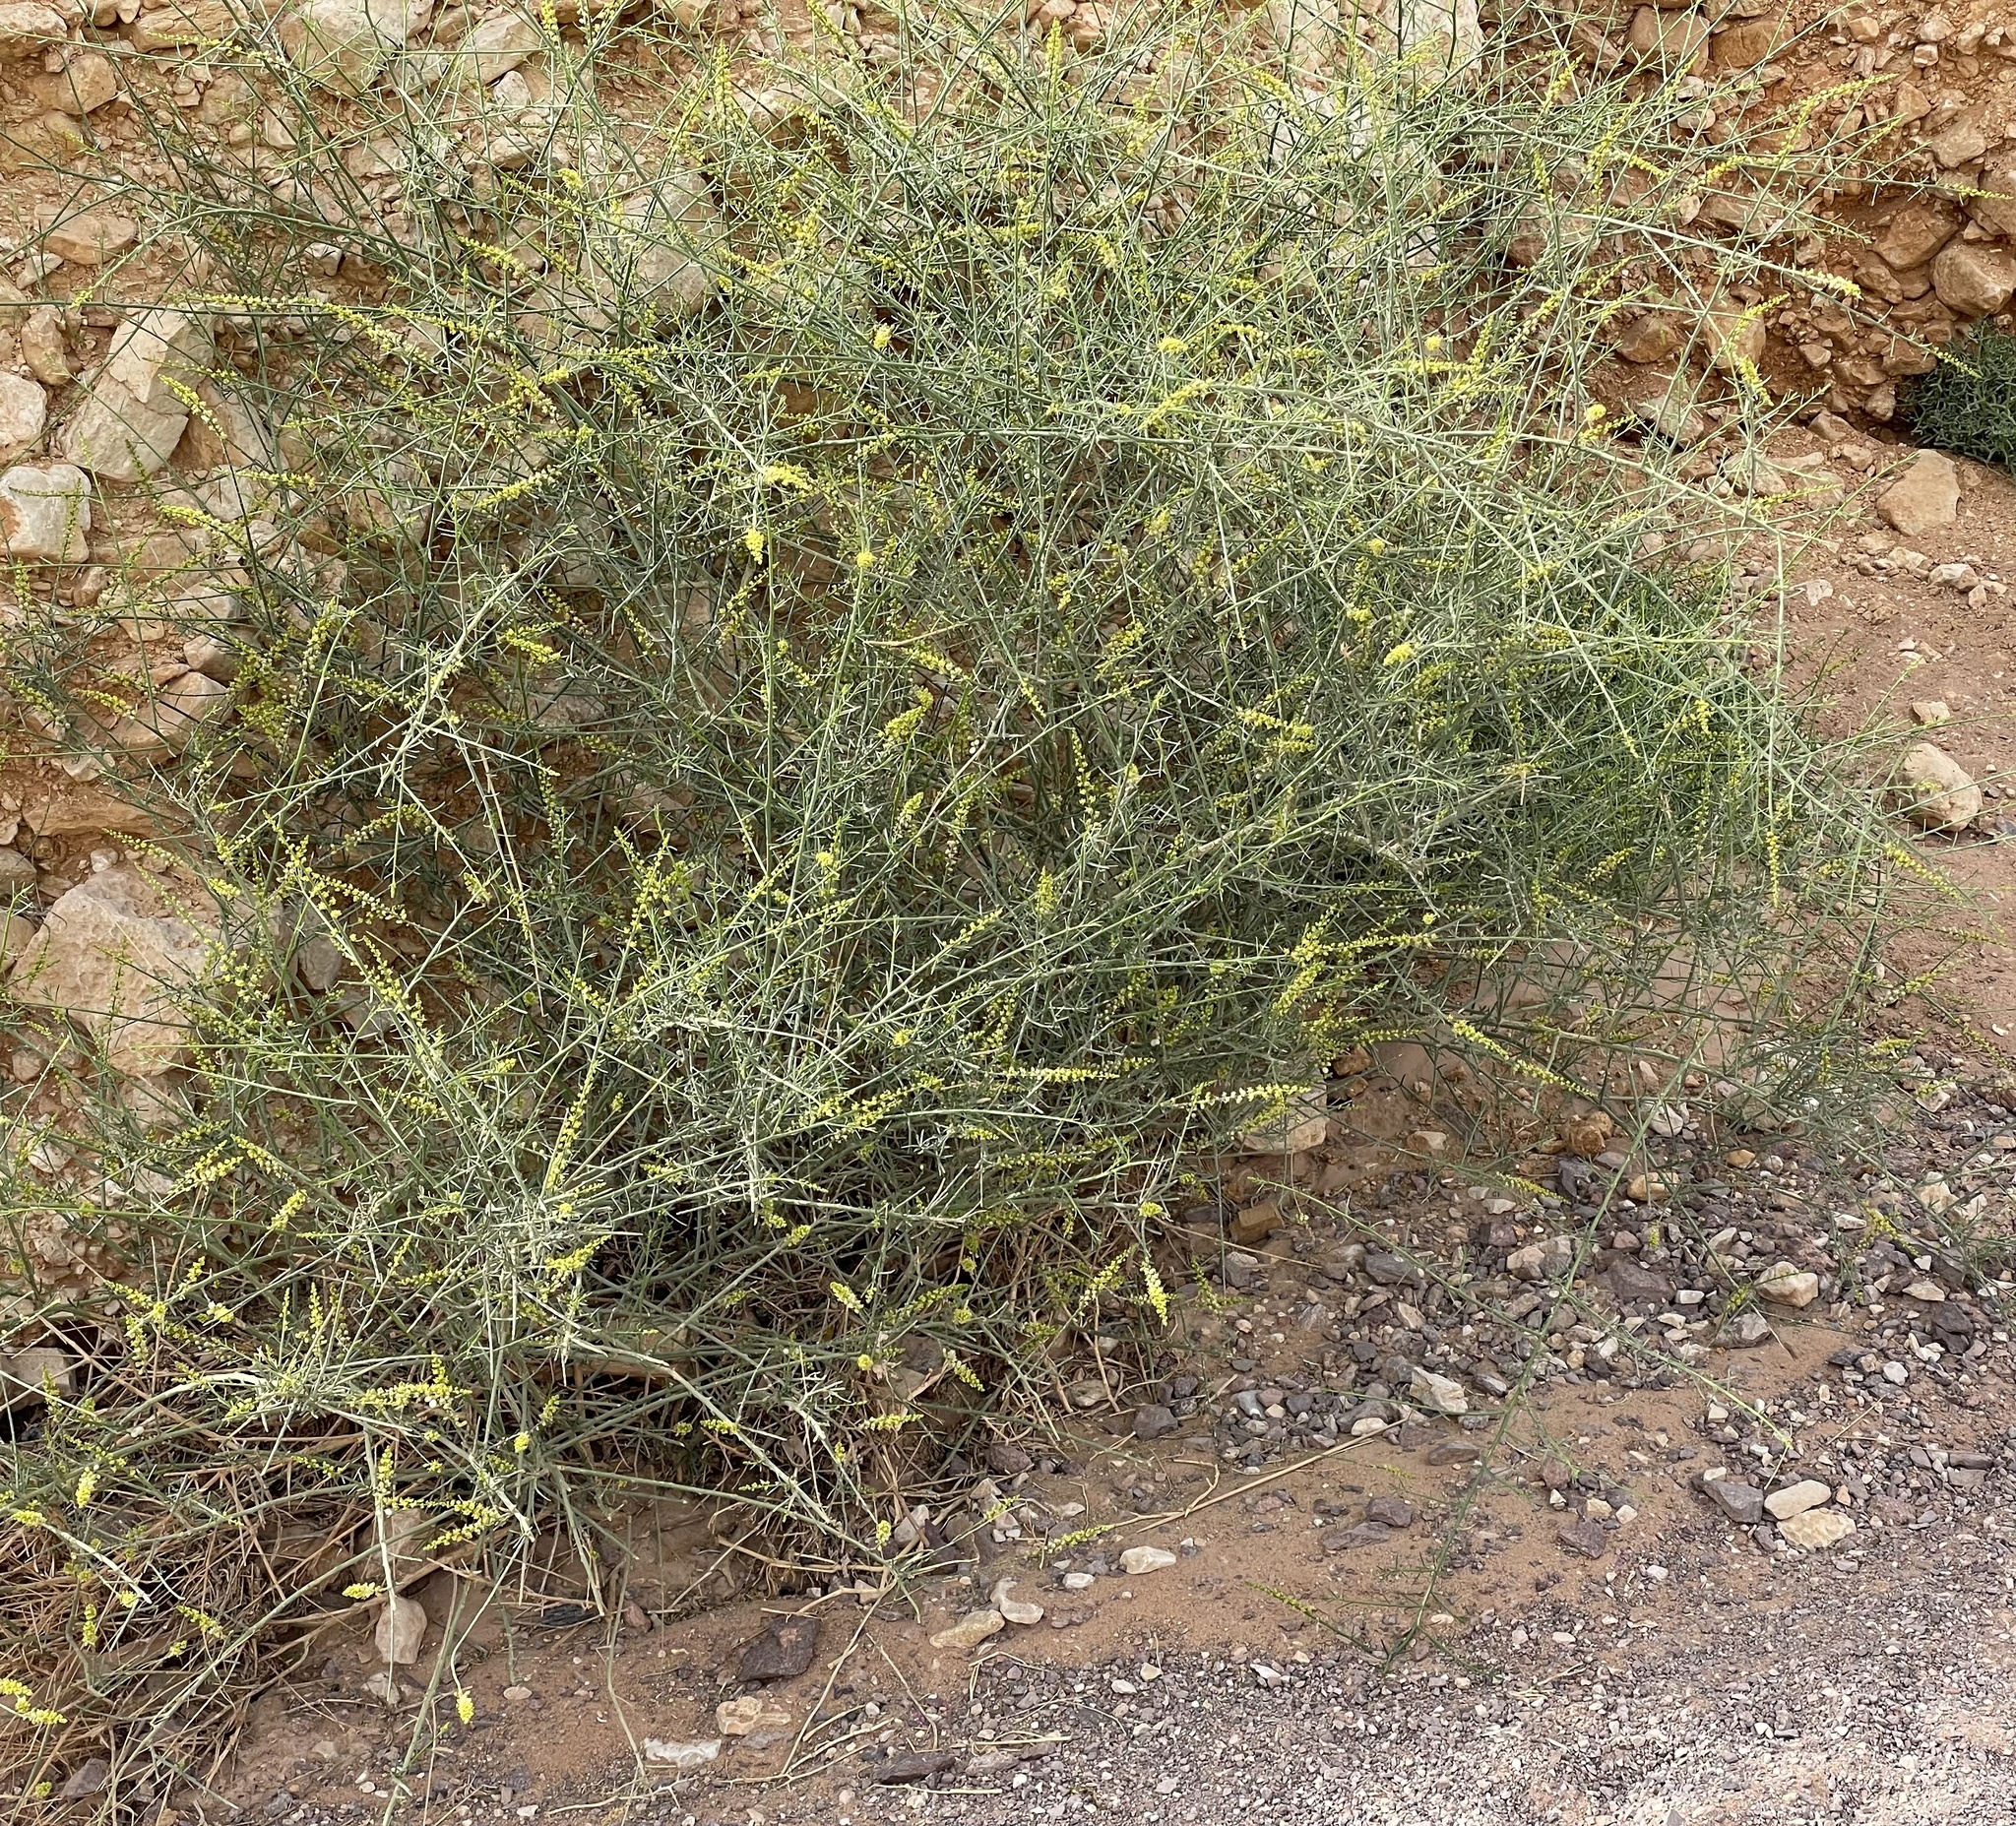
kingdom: Plantae
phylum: Tracheophyta
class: Magnoliopsida
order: Brassicales
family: Resedaceae
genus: Ochradenus
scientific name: Ochradenus baccatus
